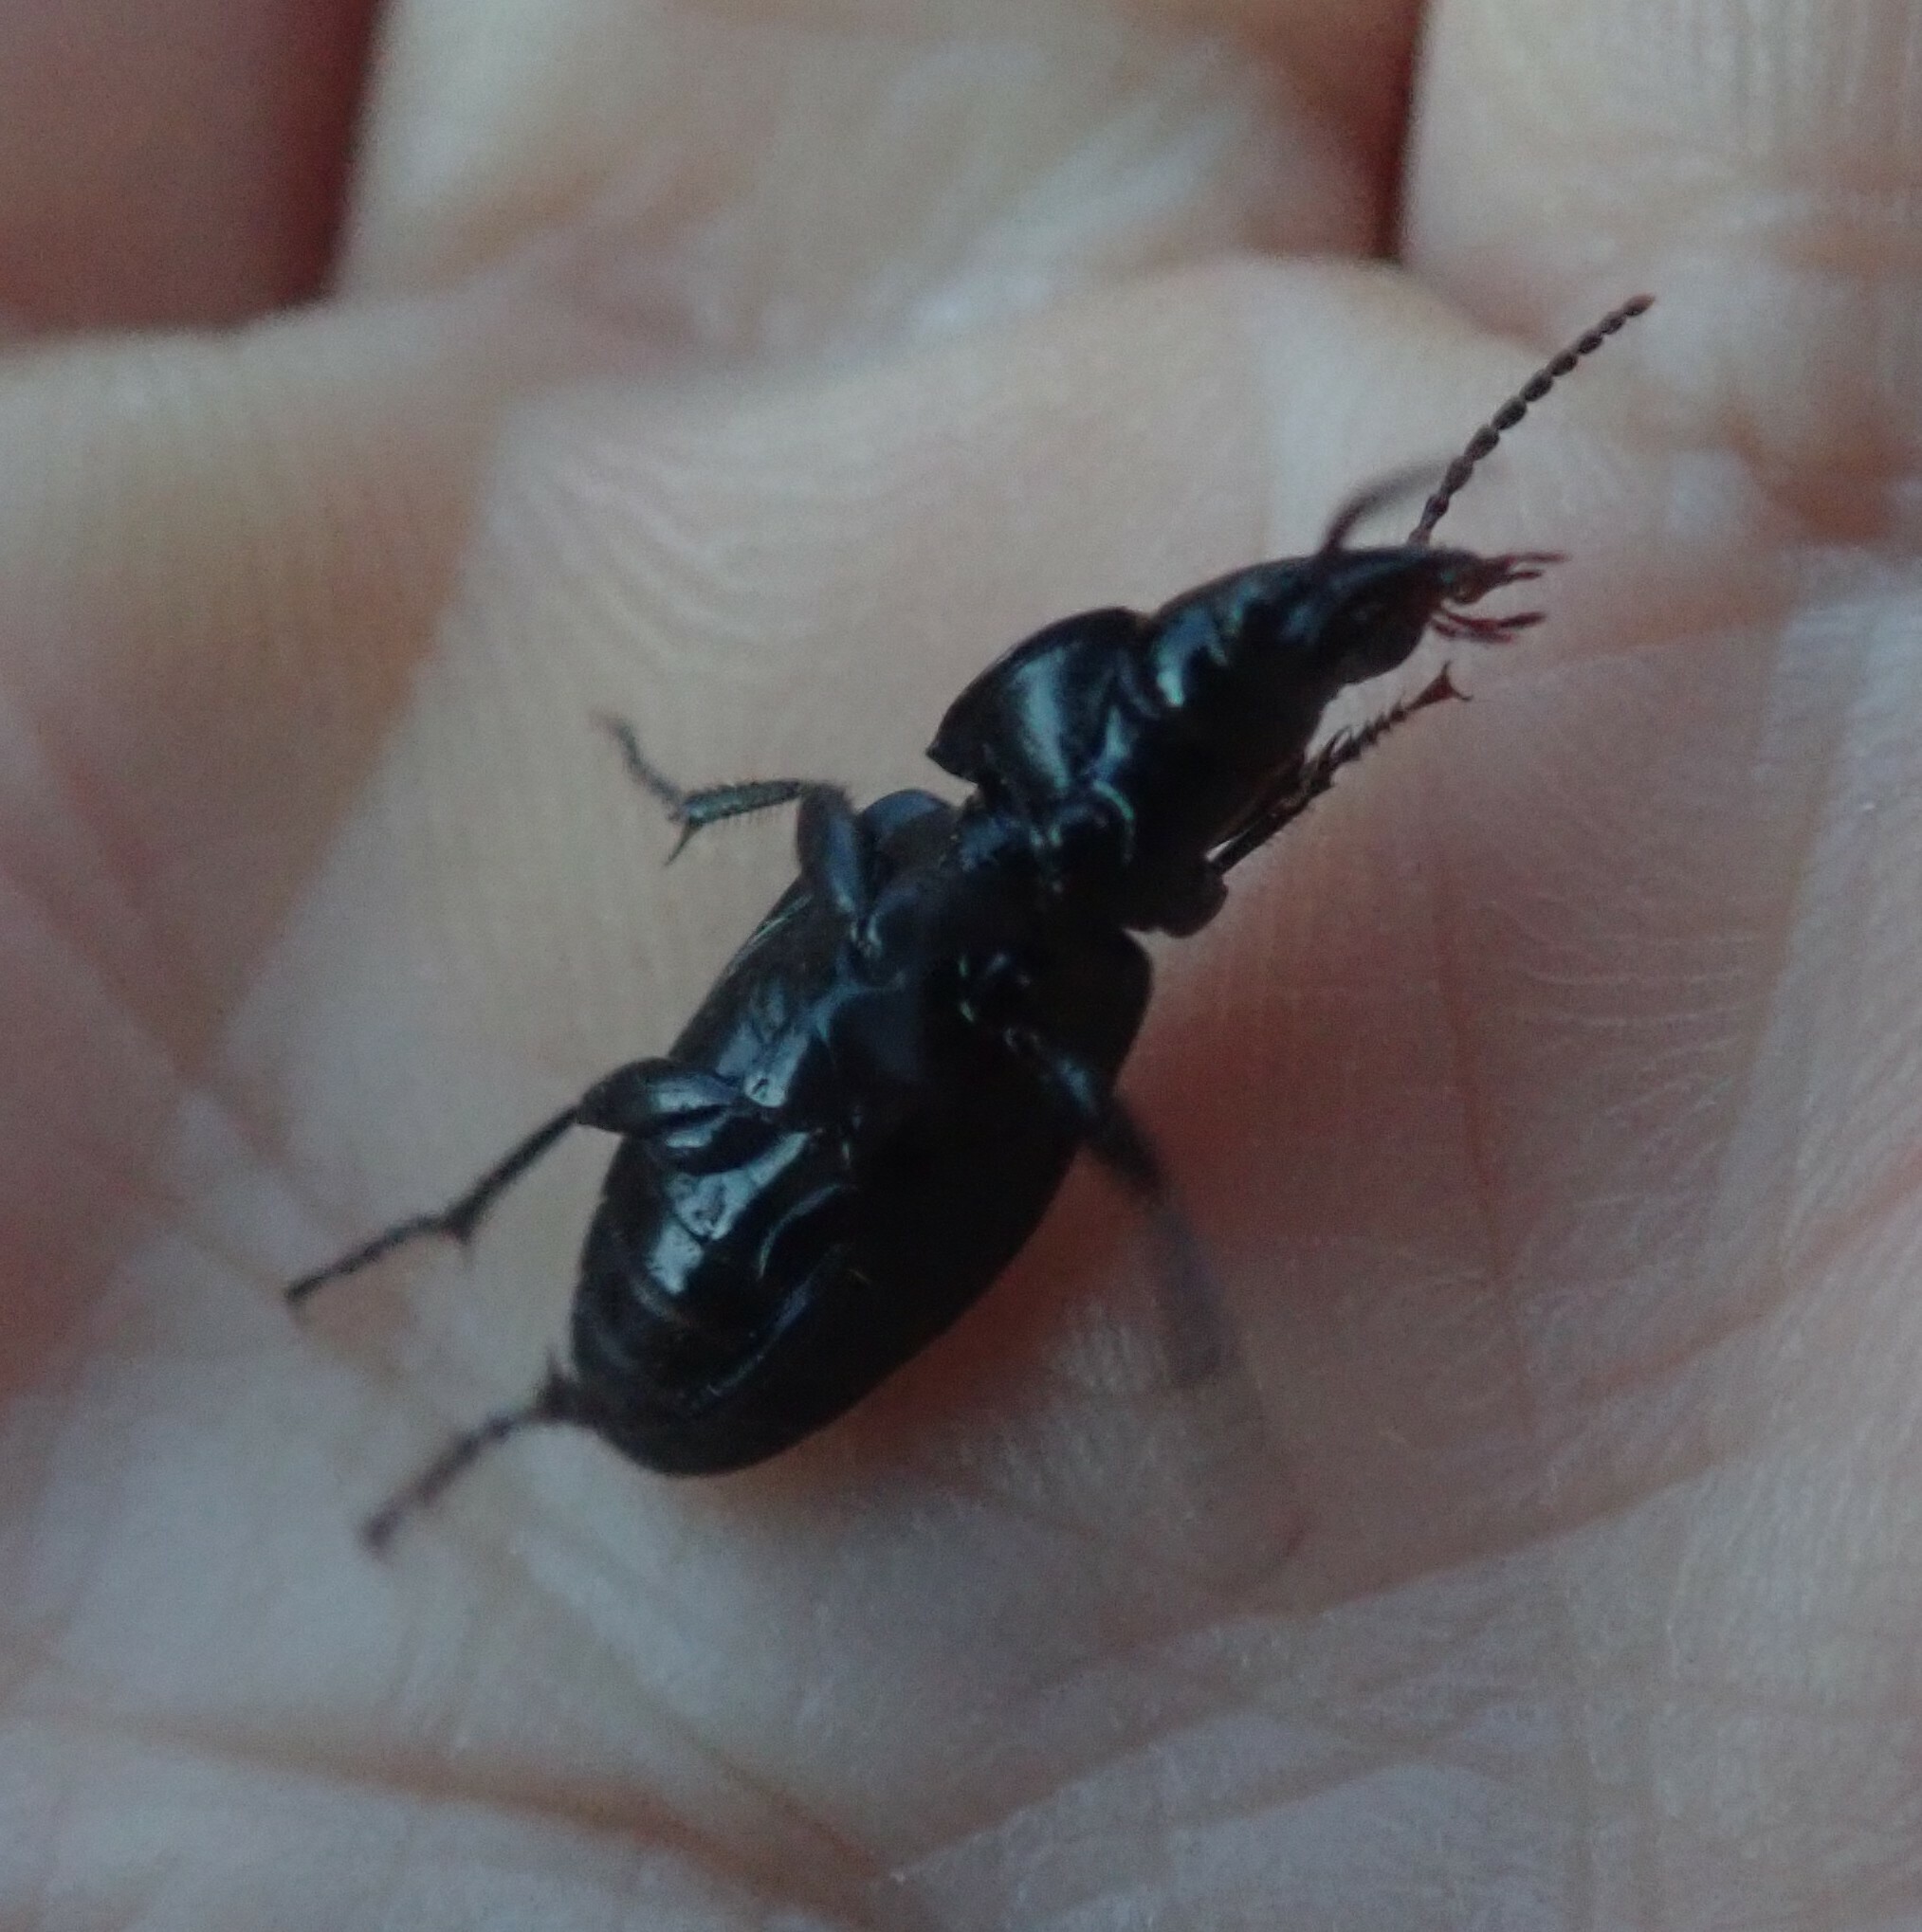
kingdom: Animalia
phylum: Arthropoda
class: Insecta
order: Coleoptera
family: Carabidae
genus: Pterostichus
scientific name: Pterostichus melanarius
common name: European dark harp ground beetle
